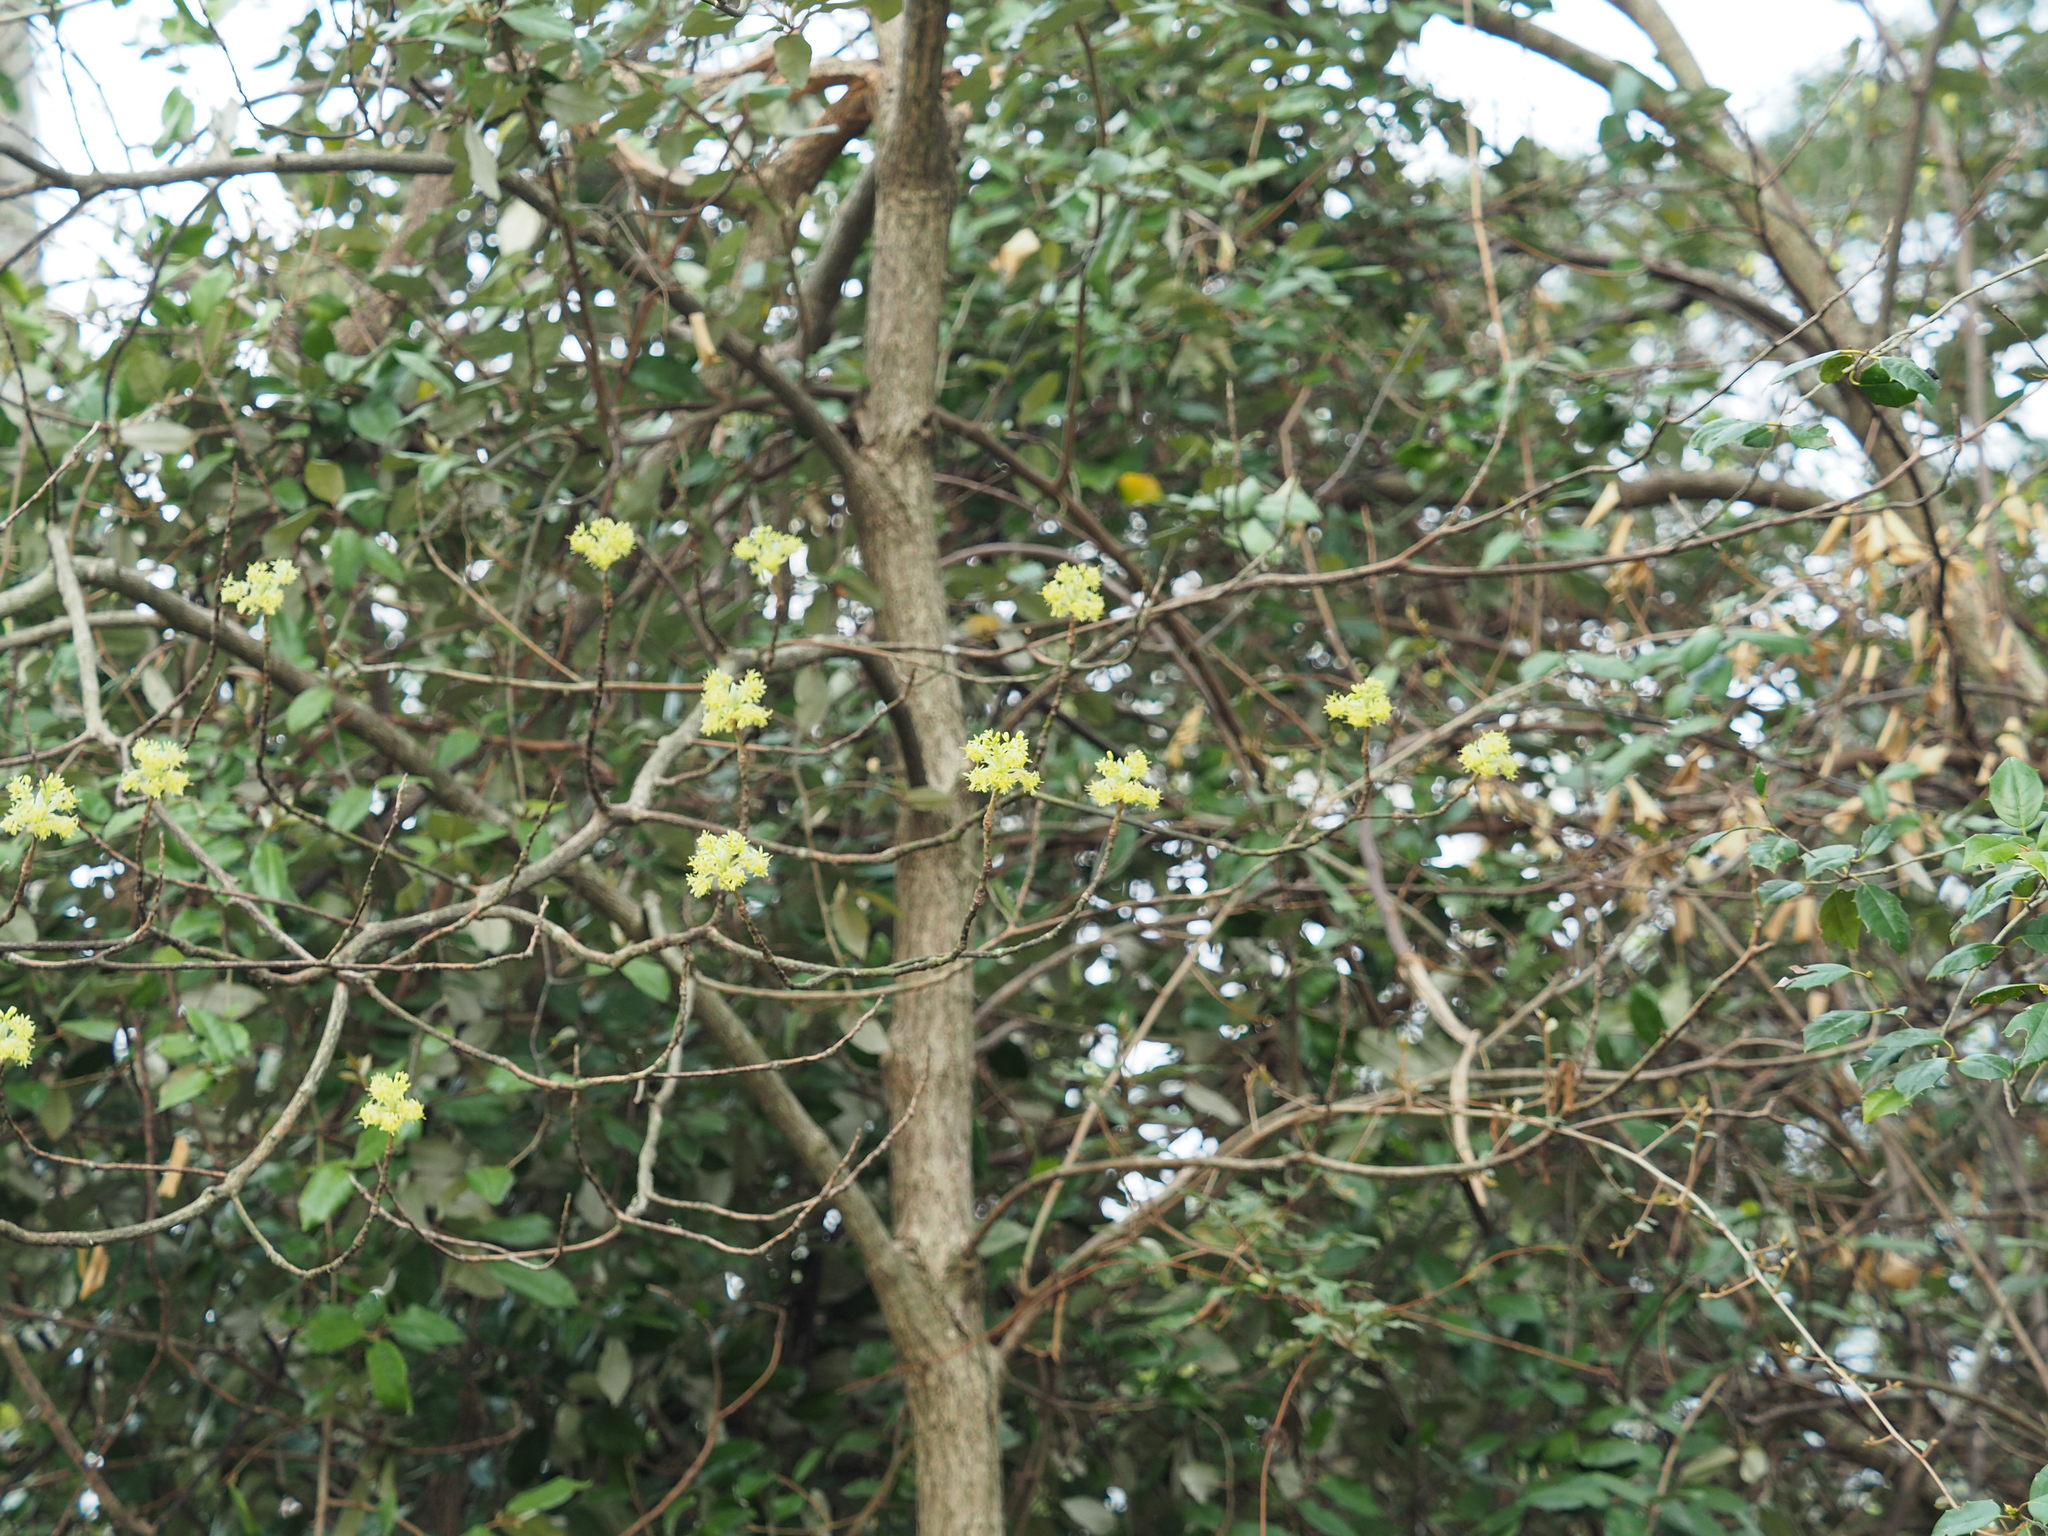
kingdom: Plantae
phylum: Tracheophyta
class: Magnoliopsida
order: Laurales
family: Lauraceae
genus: Sassafras
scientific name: Sassafras albidum
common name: Sassafras
